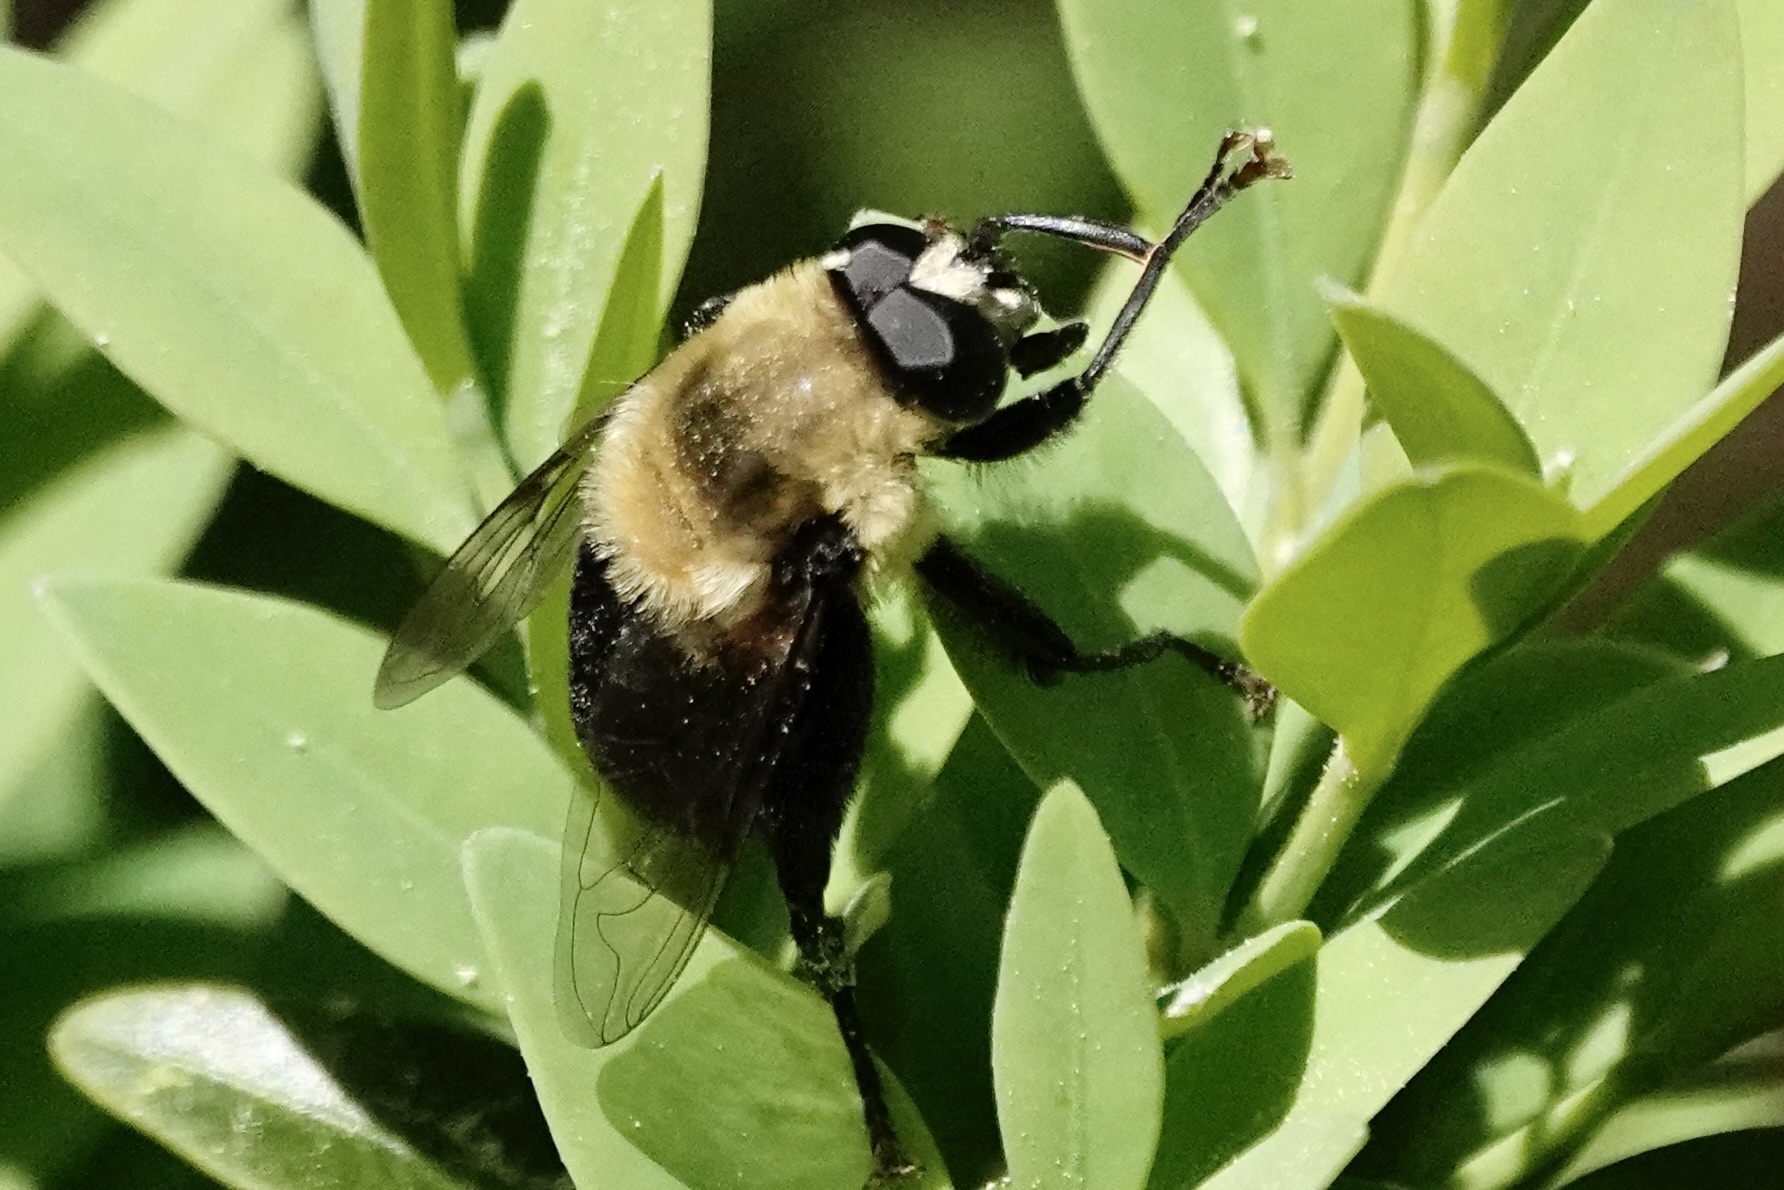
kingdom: Animalia
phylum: Arthropoda
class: Insecta
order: Diptera
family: Syrphidae
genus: Imatisma
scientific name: Imatisma bautias
